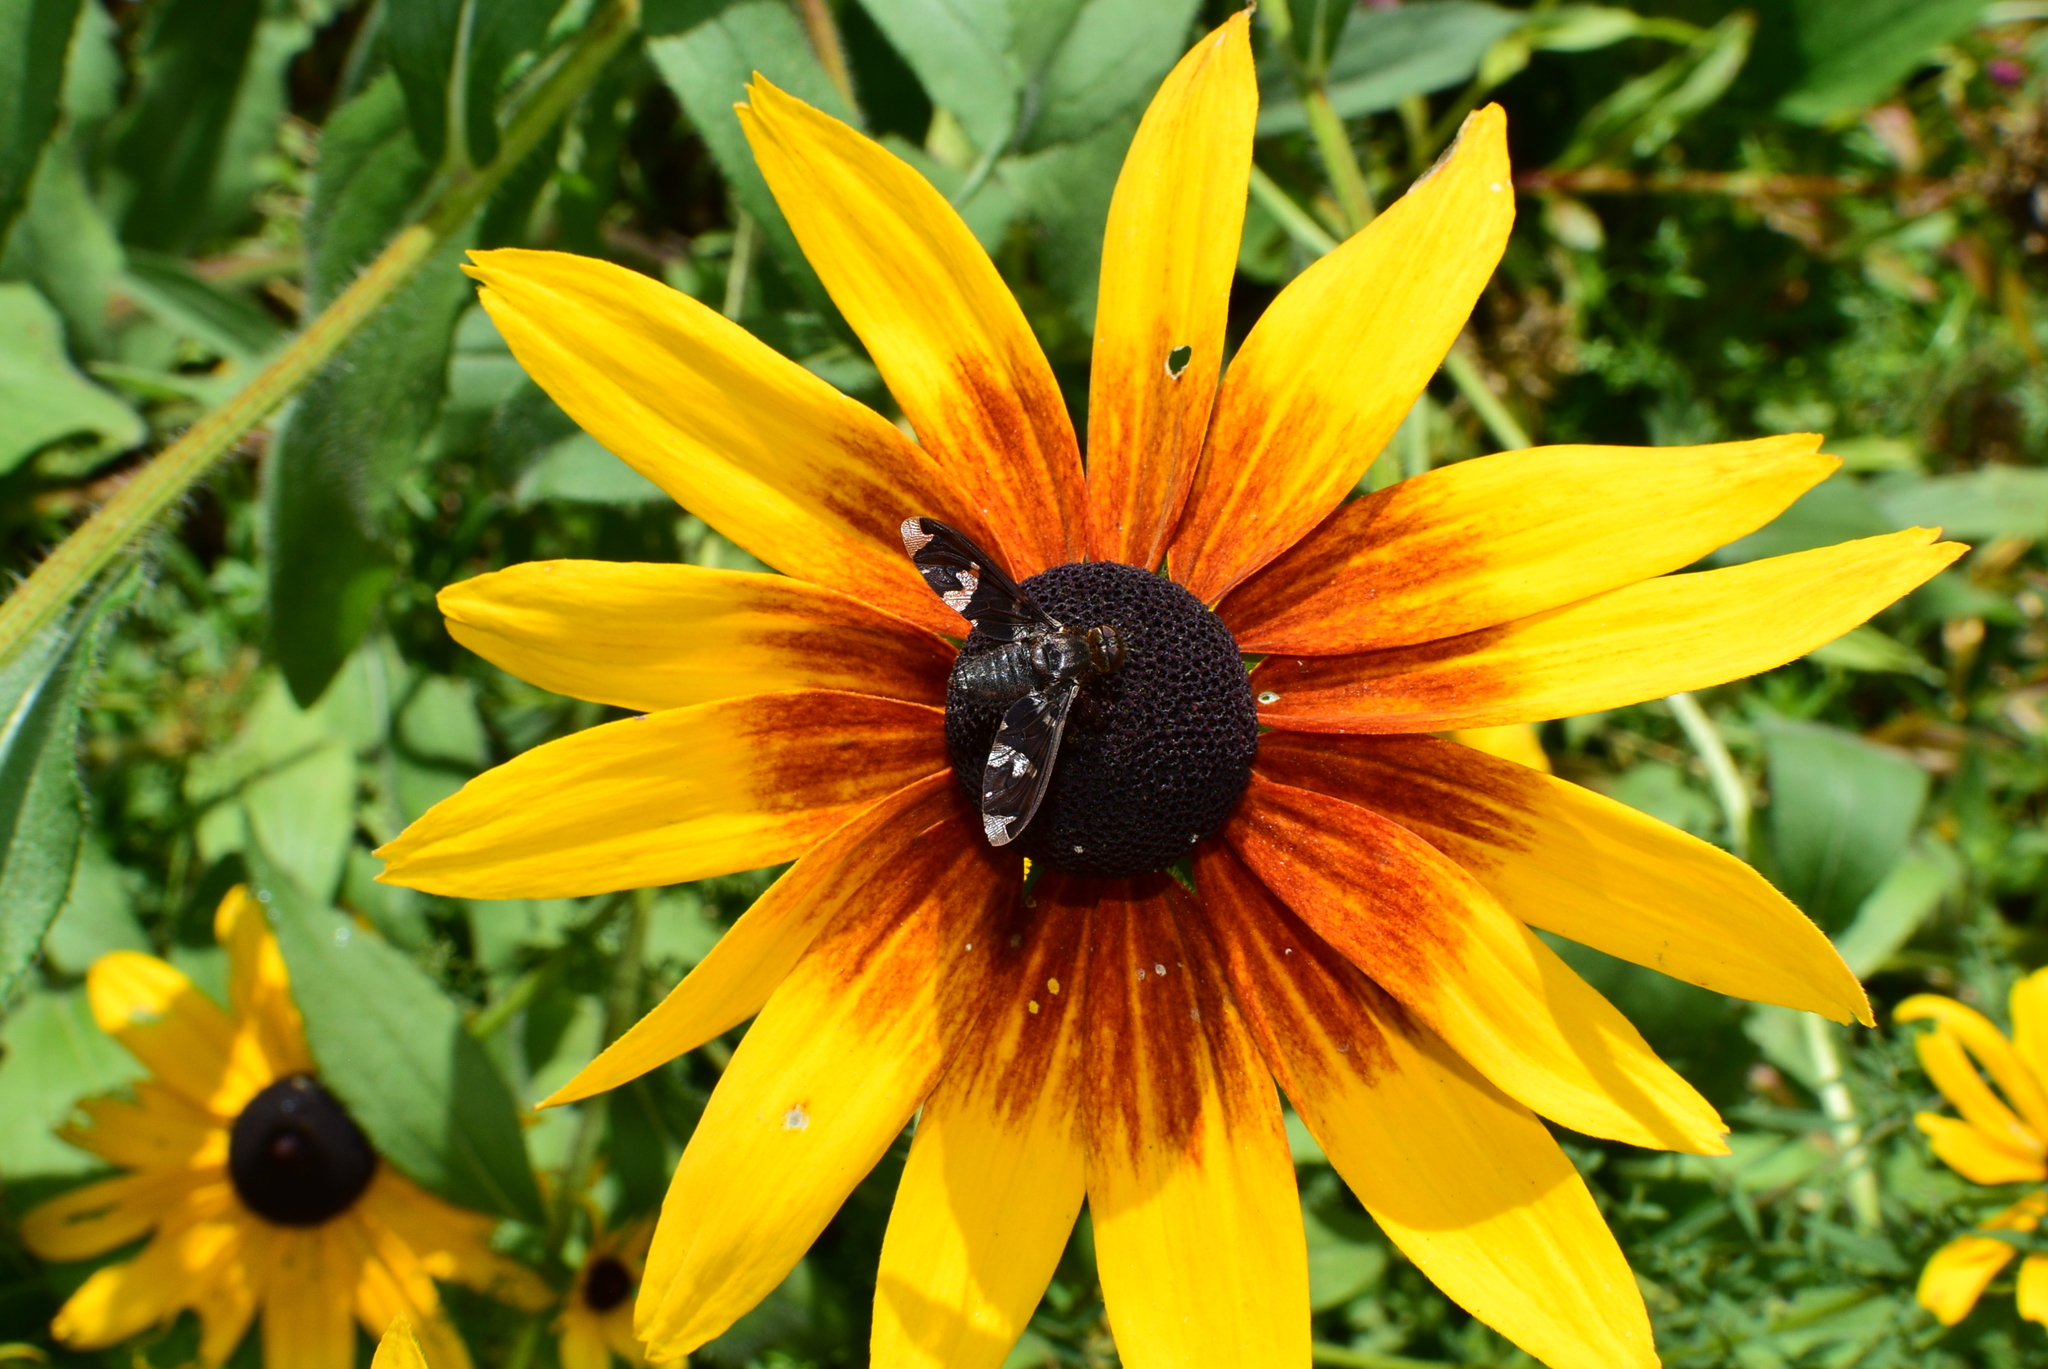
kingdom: Animalia
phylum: Arthropoda
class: Insecta
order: Diptera
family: Bombyliidae
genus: Exoprosopa
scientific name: Exoprosopa decora
